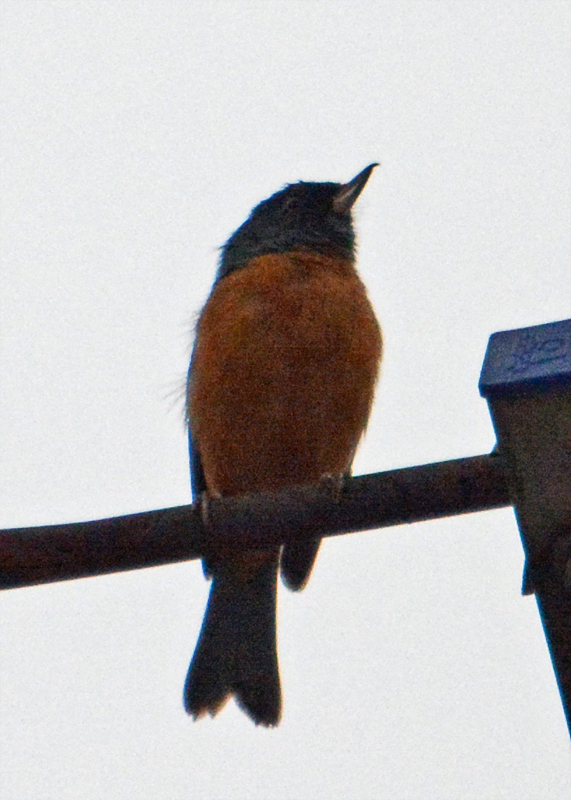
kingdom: Animalia
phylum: Chordata
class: Aves
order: Passeriformes
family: Thraupidae
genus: Diglossa
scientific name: Diglossa baritula
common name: Cinnamon-bellied flowerpiercer
